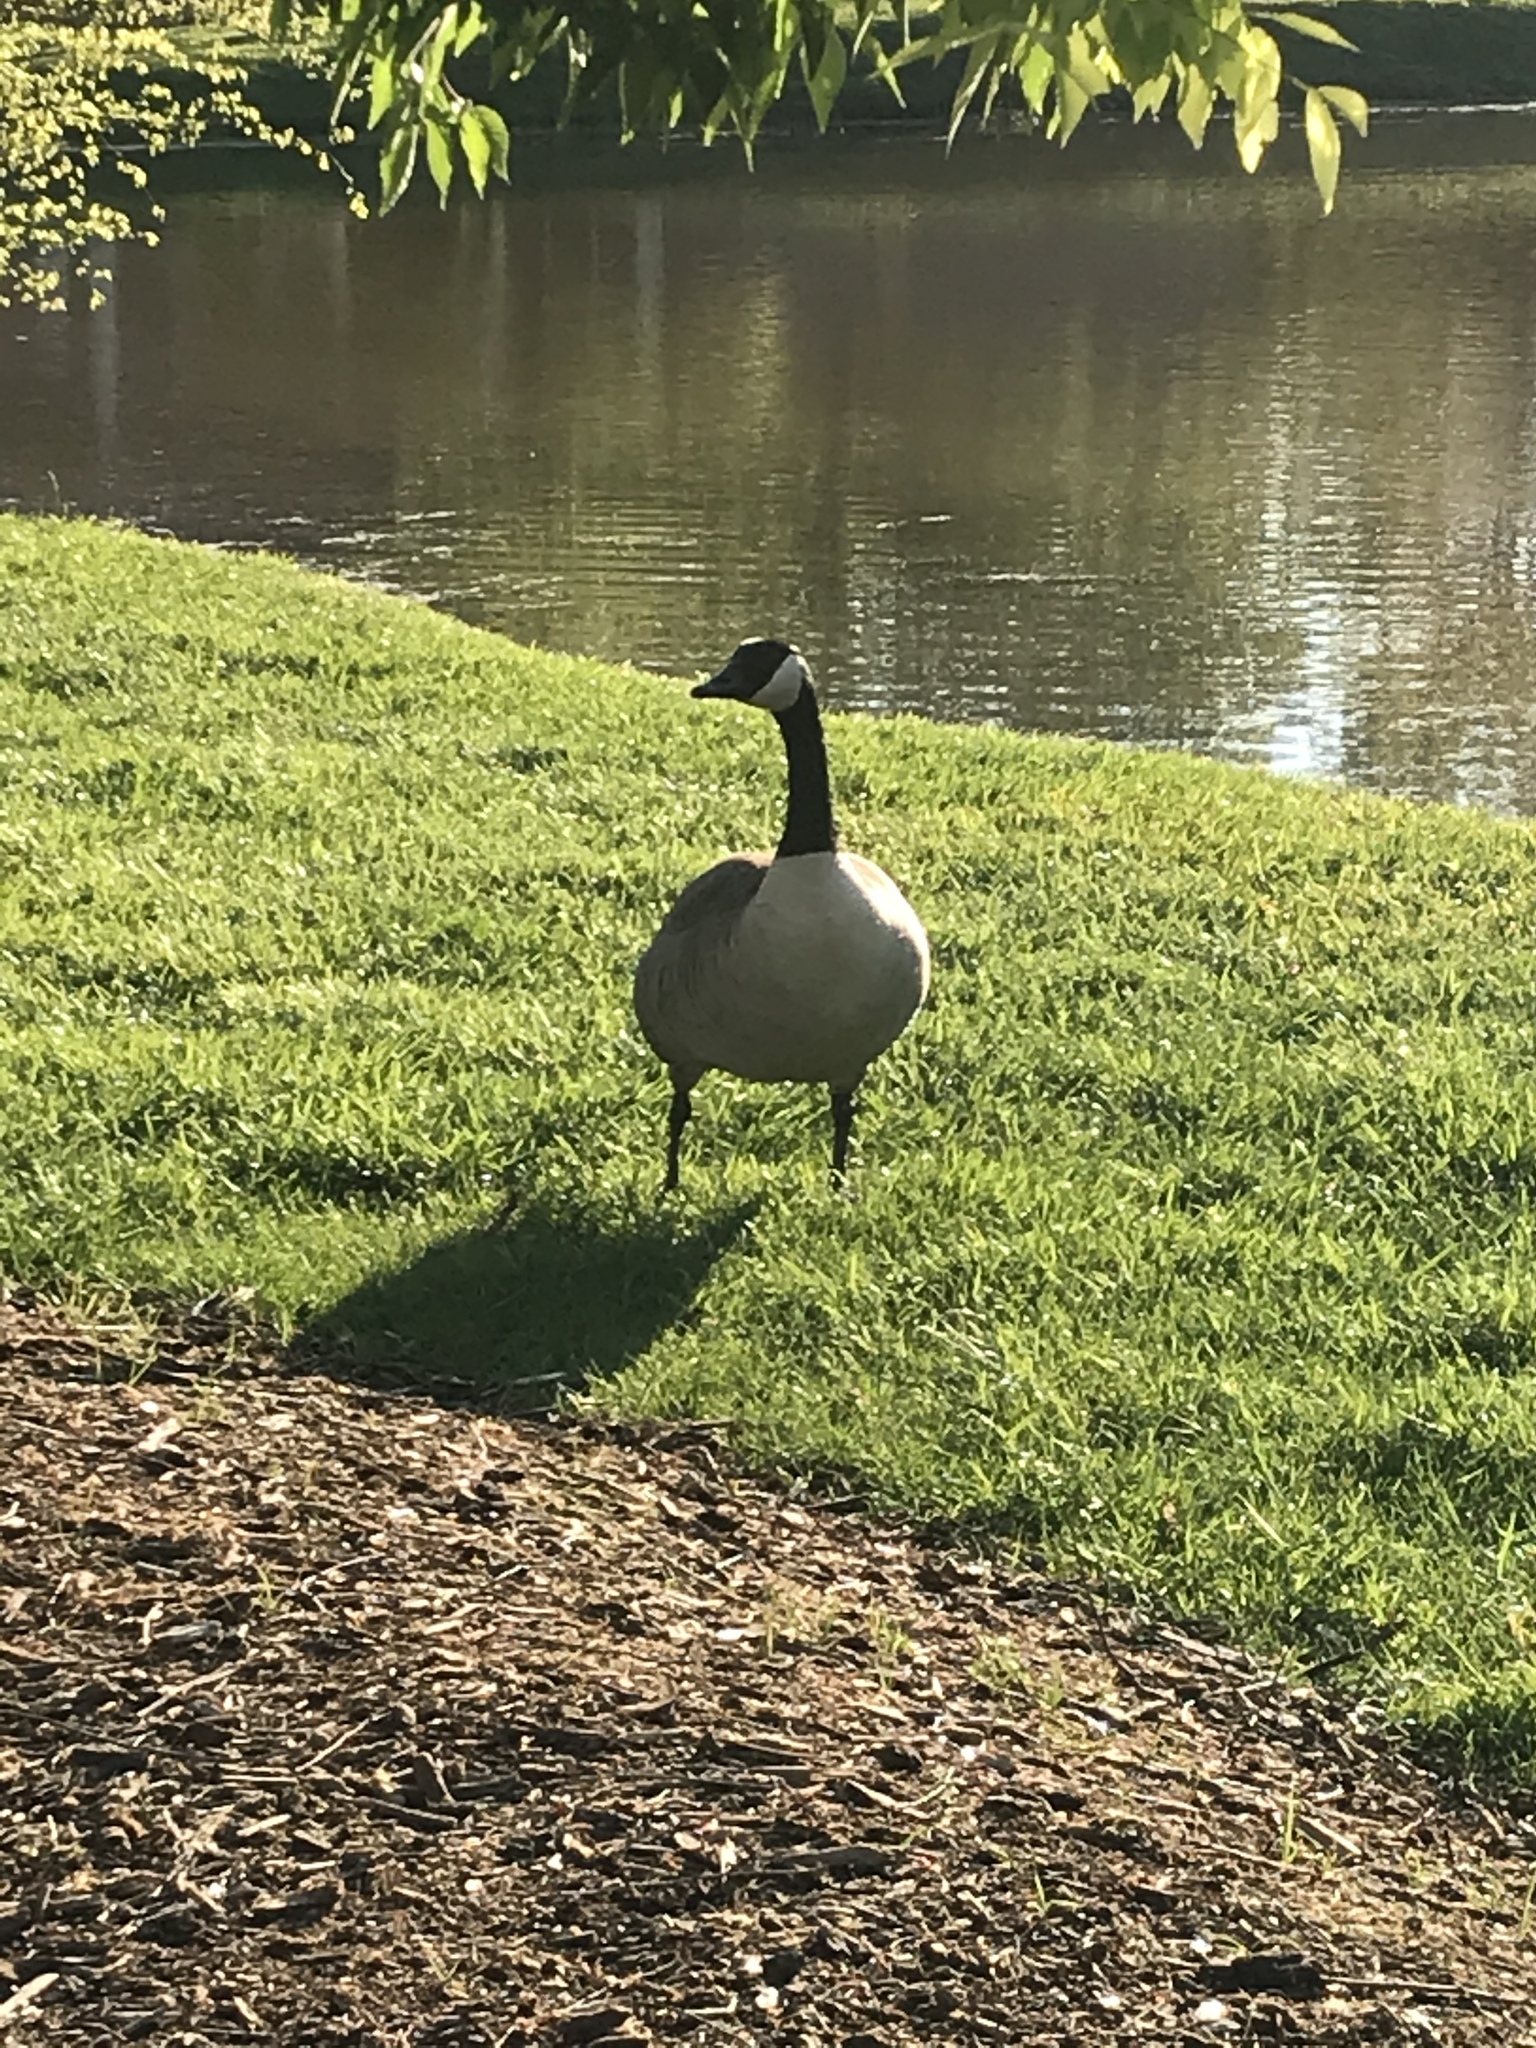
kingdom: Animalia
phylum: Chordata
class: Aves
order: Anseriformes
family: Anatidae
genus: Branta
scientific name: Branta canadensis
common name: Canada goose
